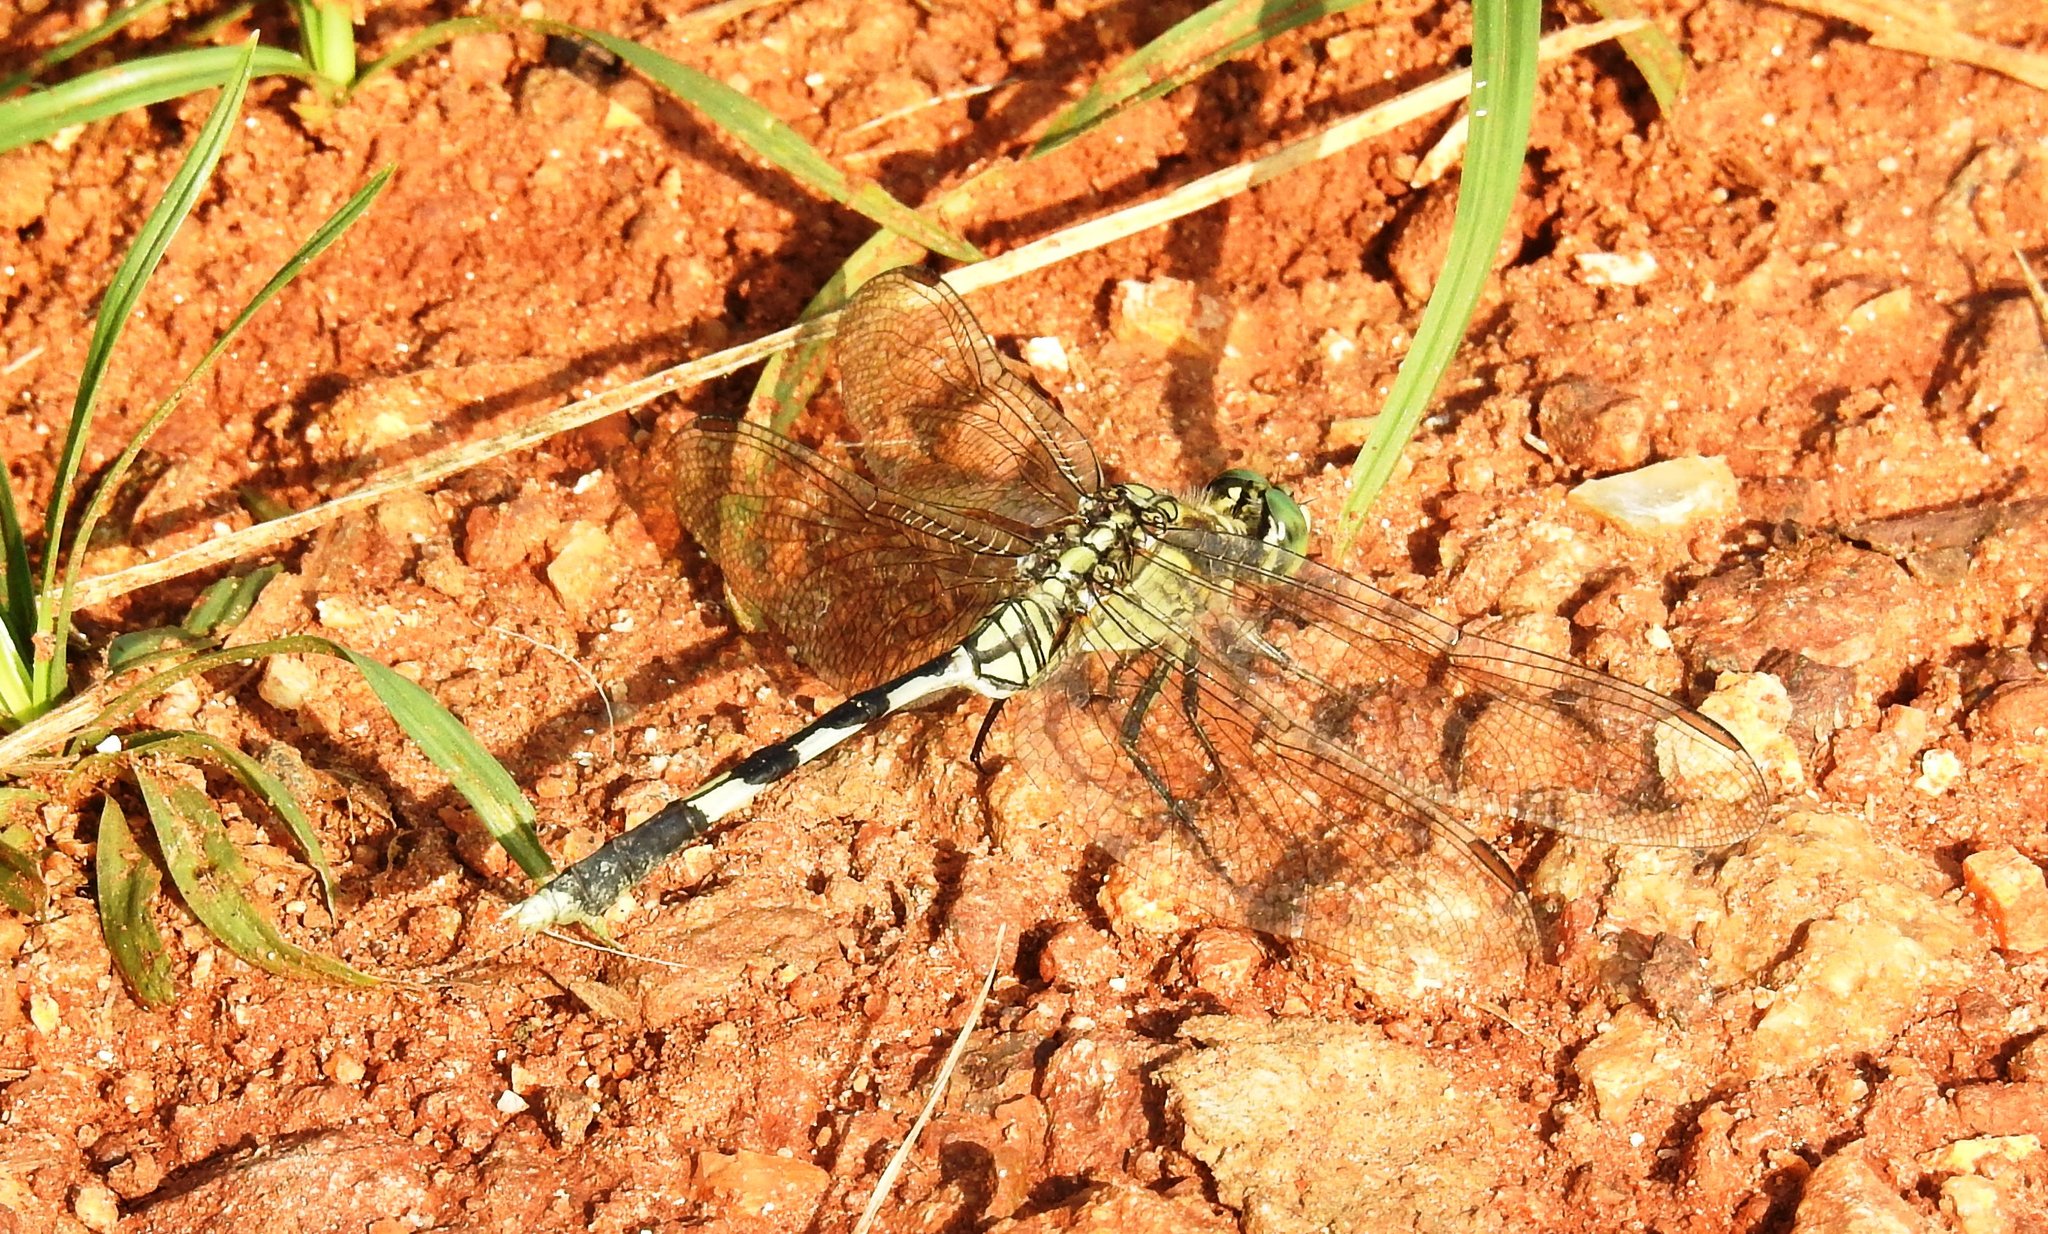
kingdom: Animalia
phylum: Arthropoda
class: Insecta
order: Odonata
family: Libellulidae
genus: Orthetrum
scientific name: Orthetrum sabina
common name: Slender skimmer
